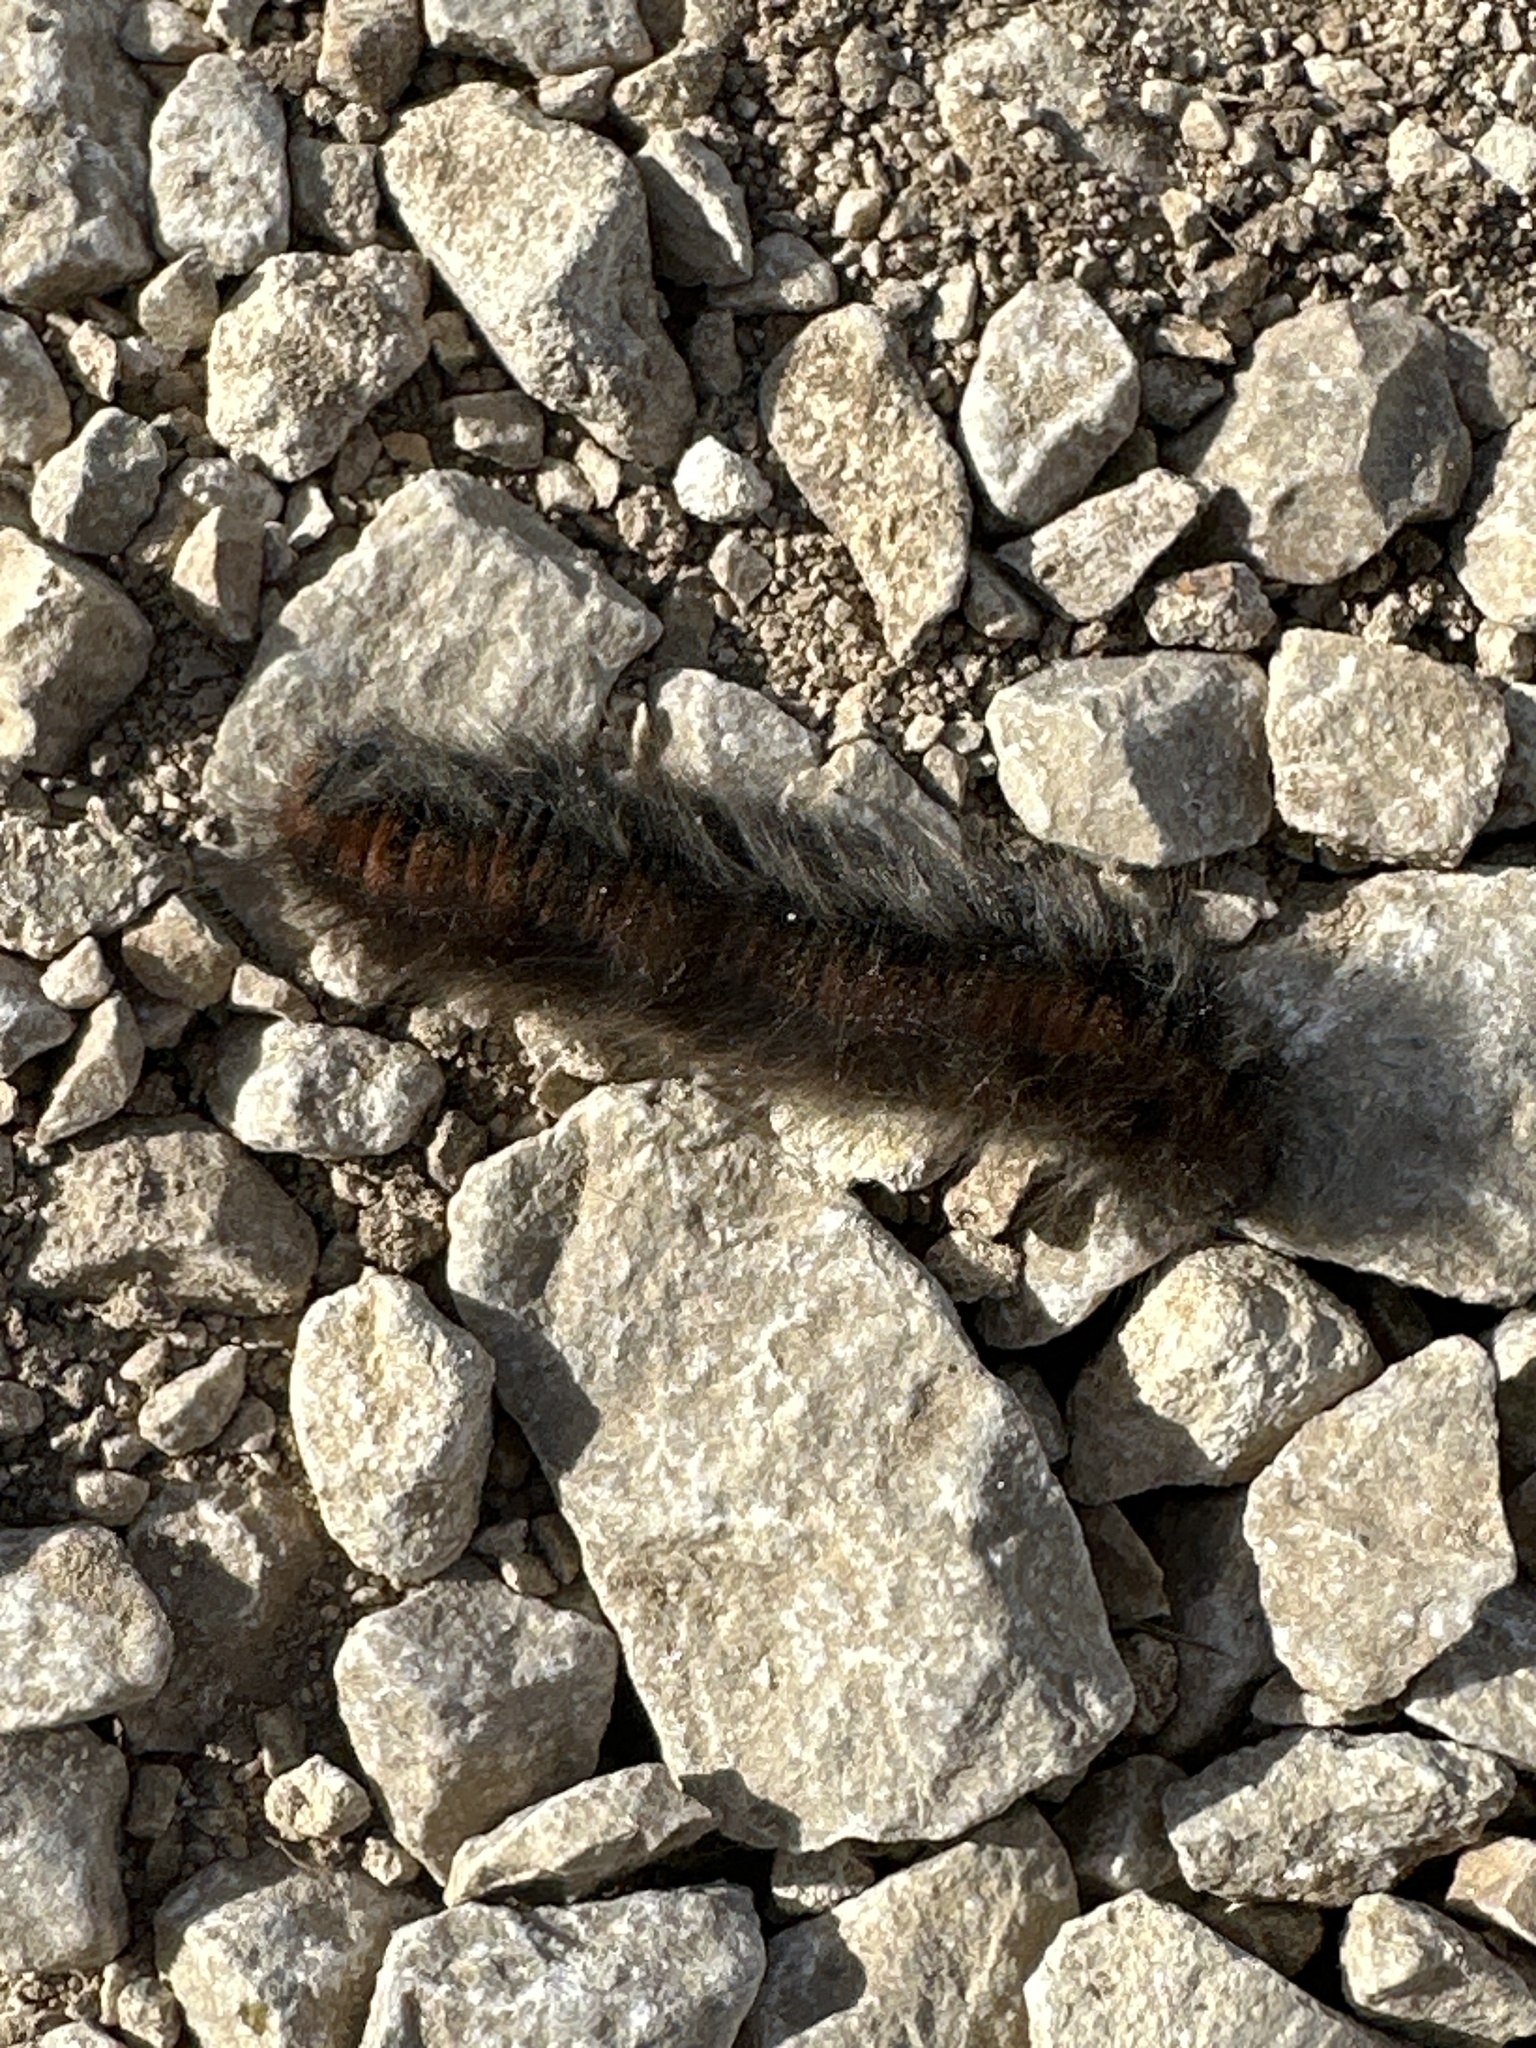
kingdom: Animalia
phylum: Arthropoda
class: Insecta
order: Lepidoptera
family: Lasiocampidae
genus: Macrothylacia
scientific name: Macrothylacia rubi
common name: Fox moth
